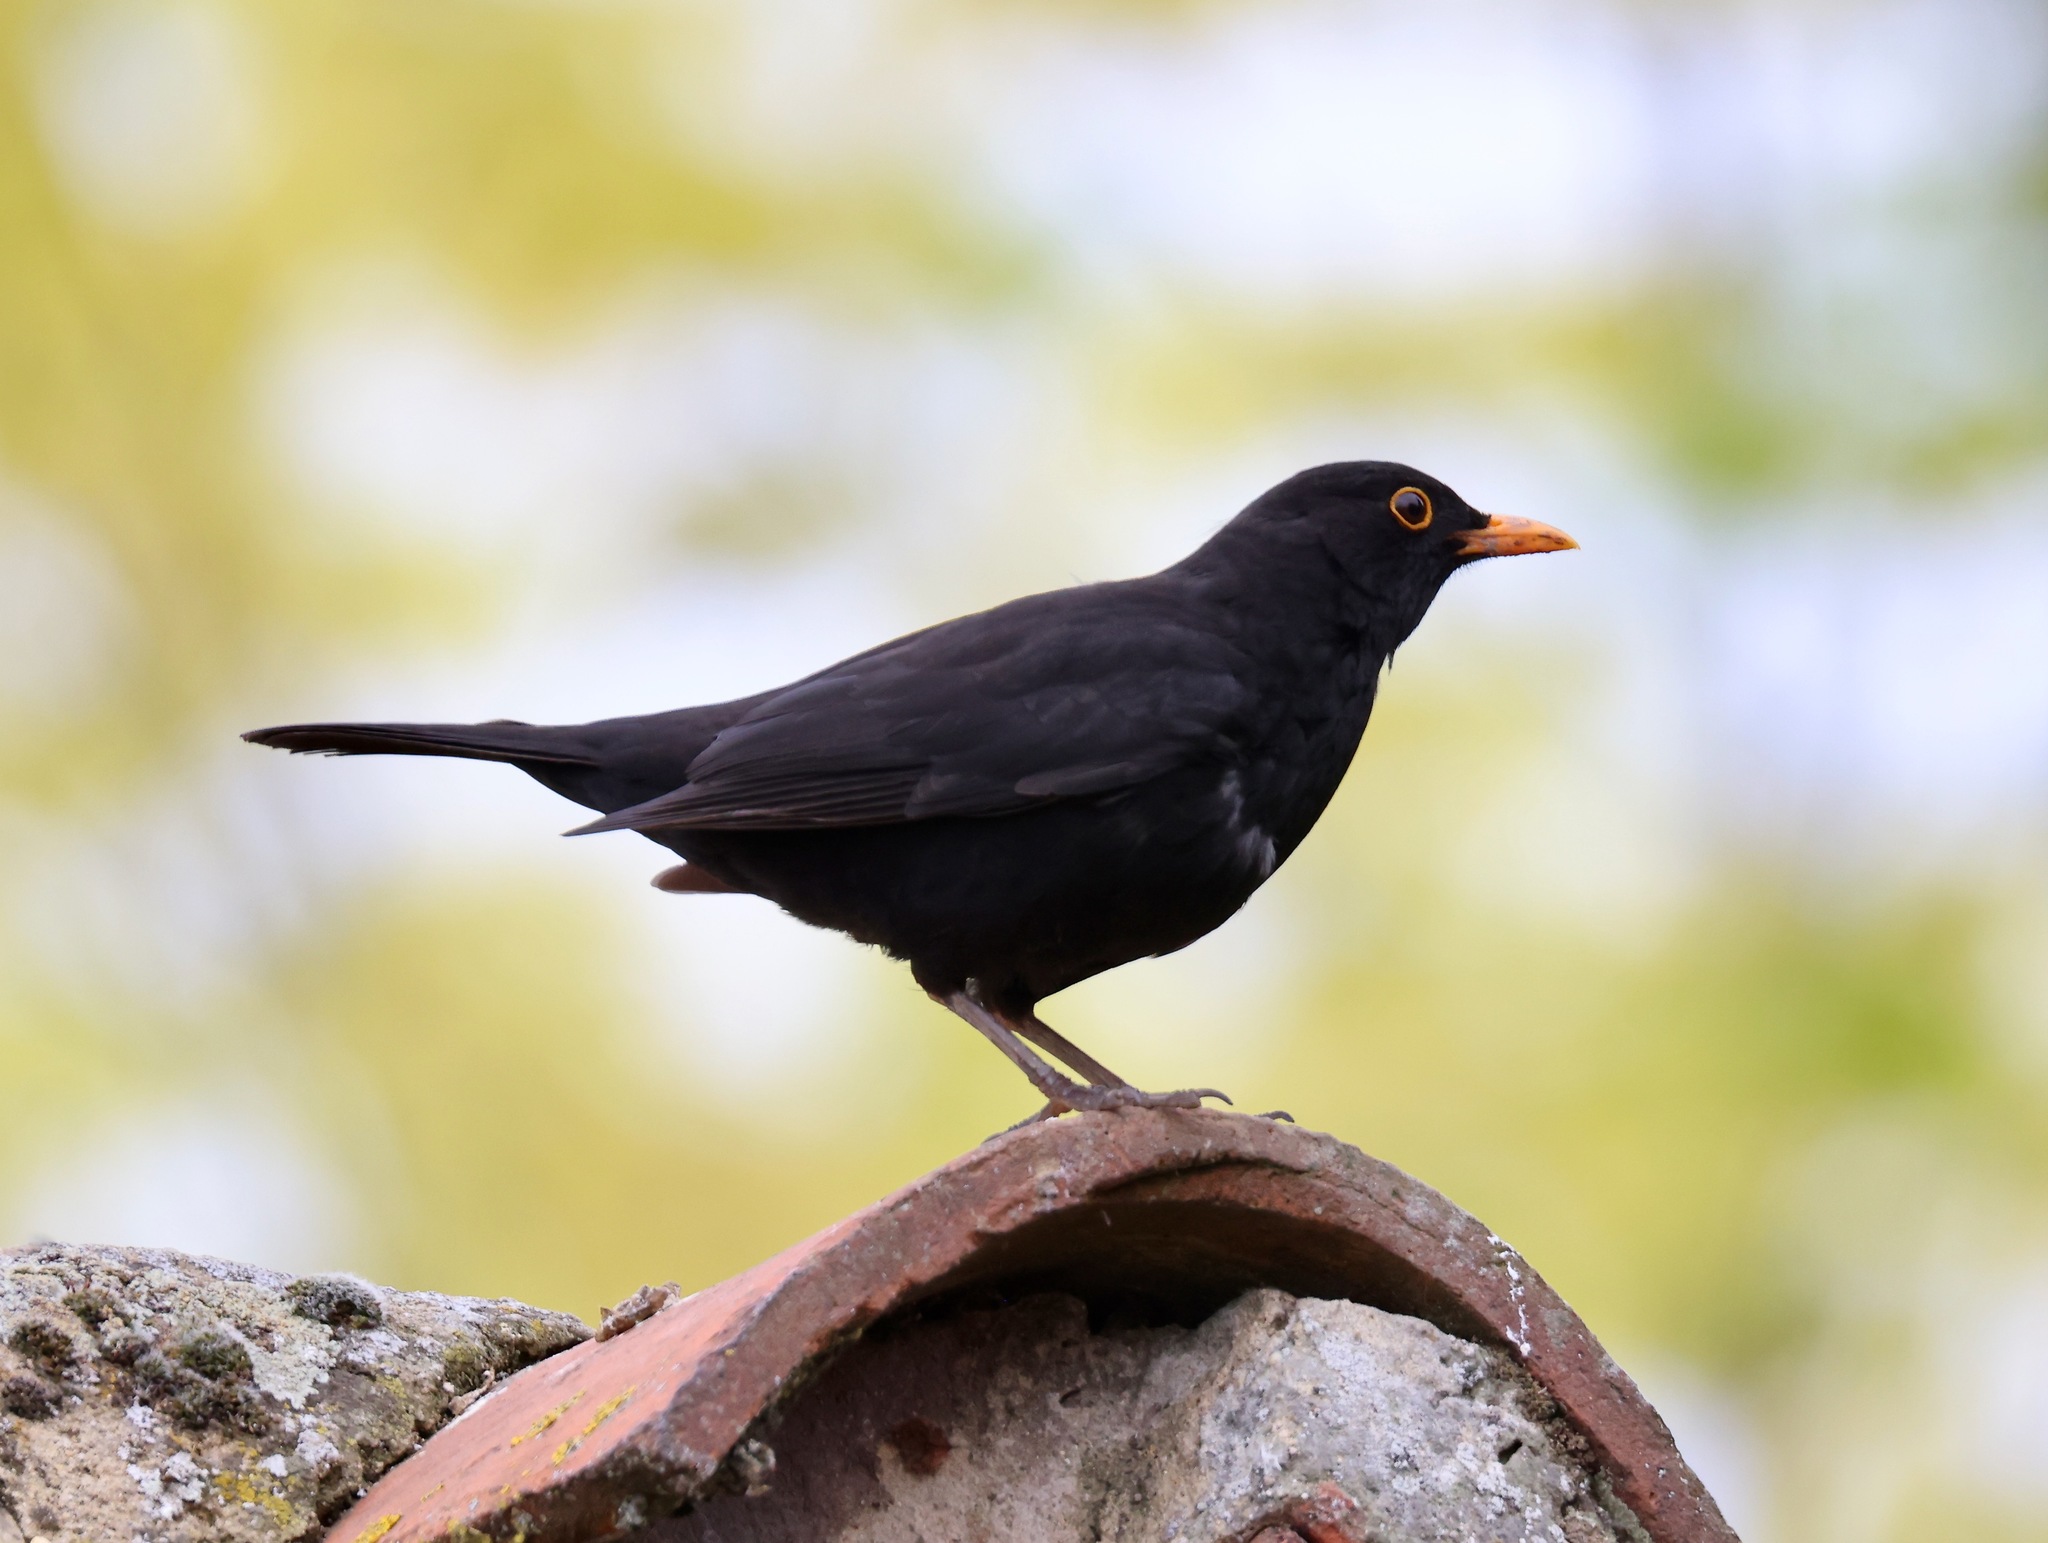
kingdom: Animalia
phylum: Chordata
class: Aves
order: Passeriformes
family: Turdidae
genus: Turdus
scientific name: Turdus merula
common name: Common blackbird
